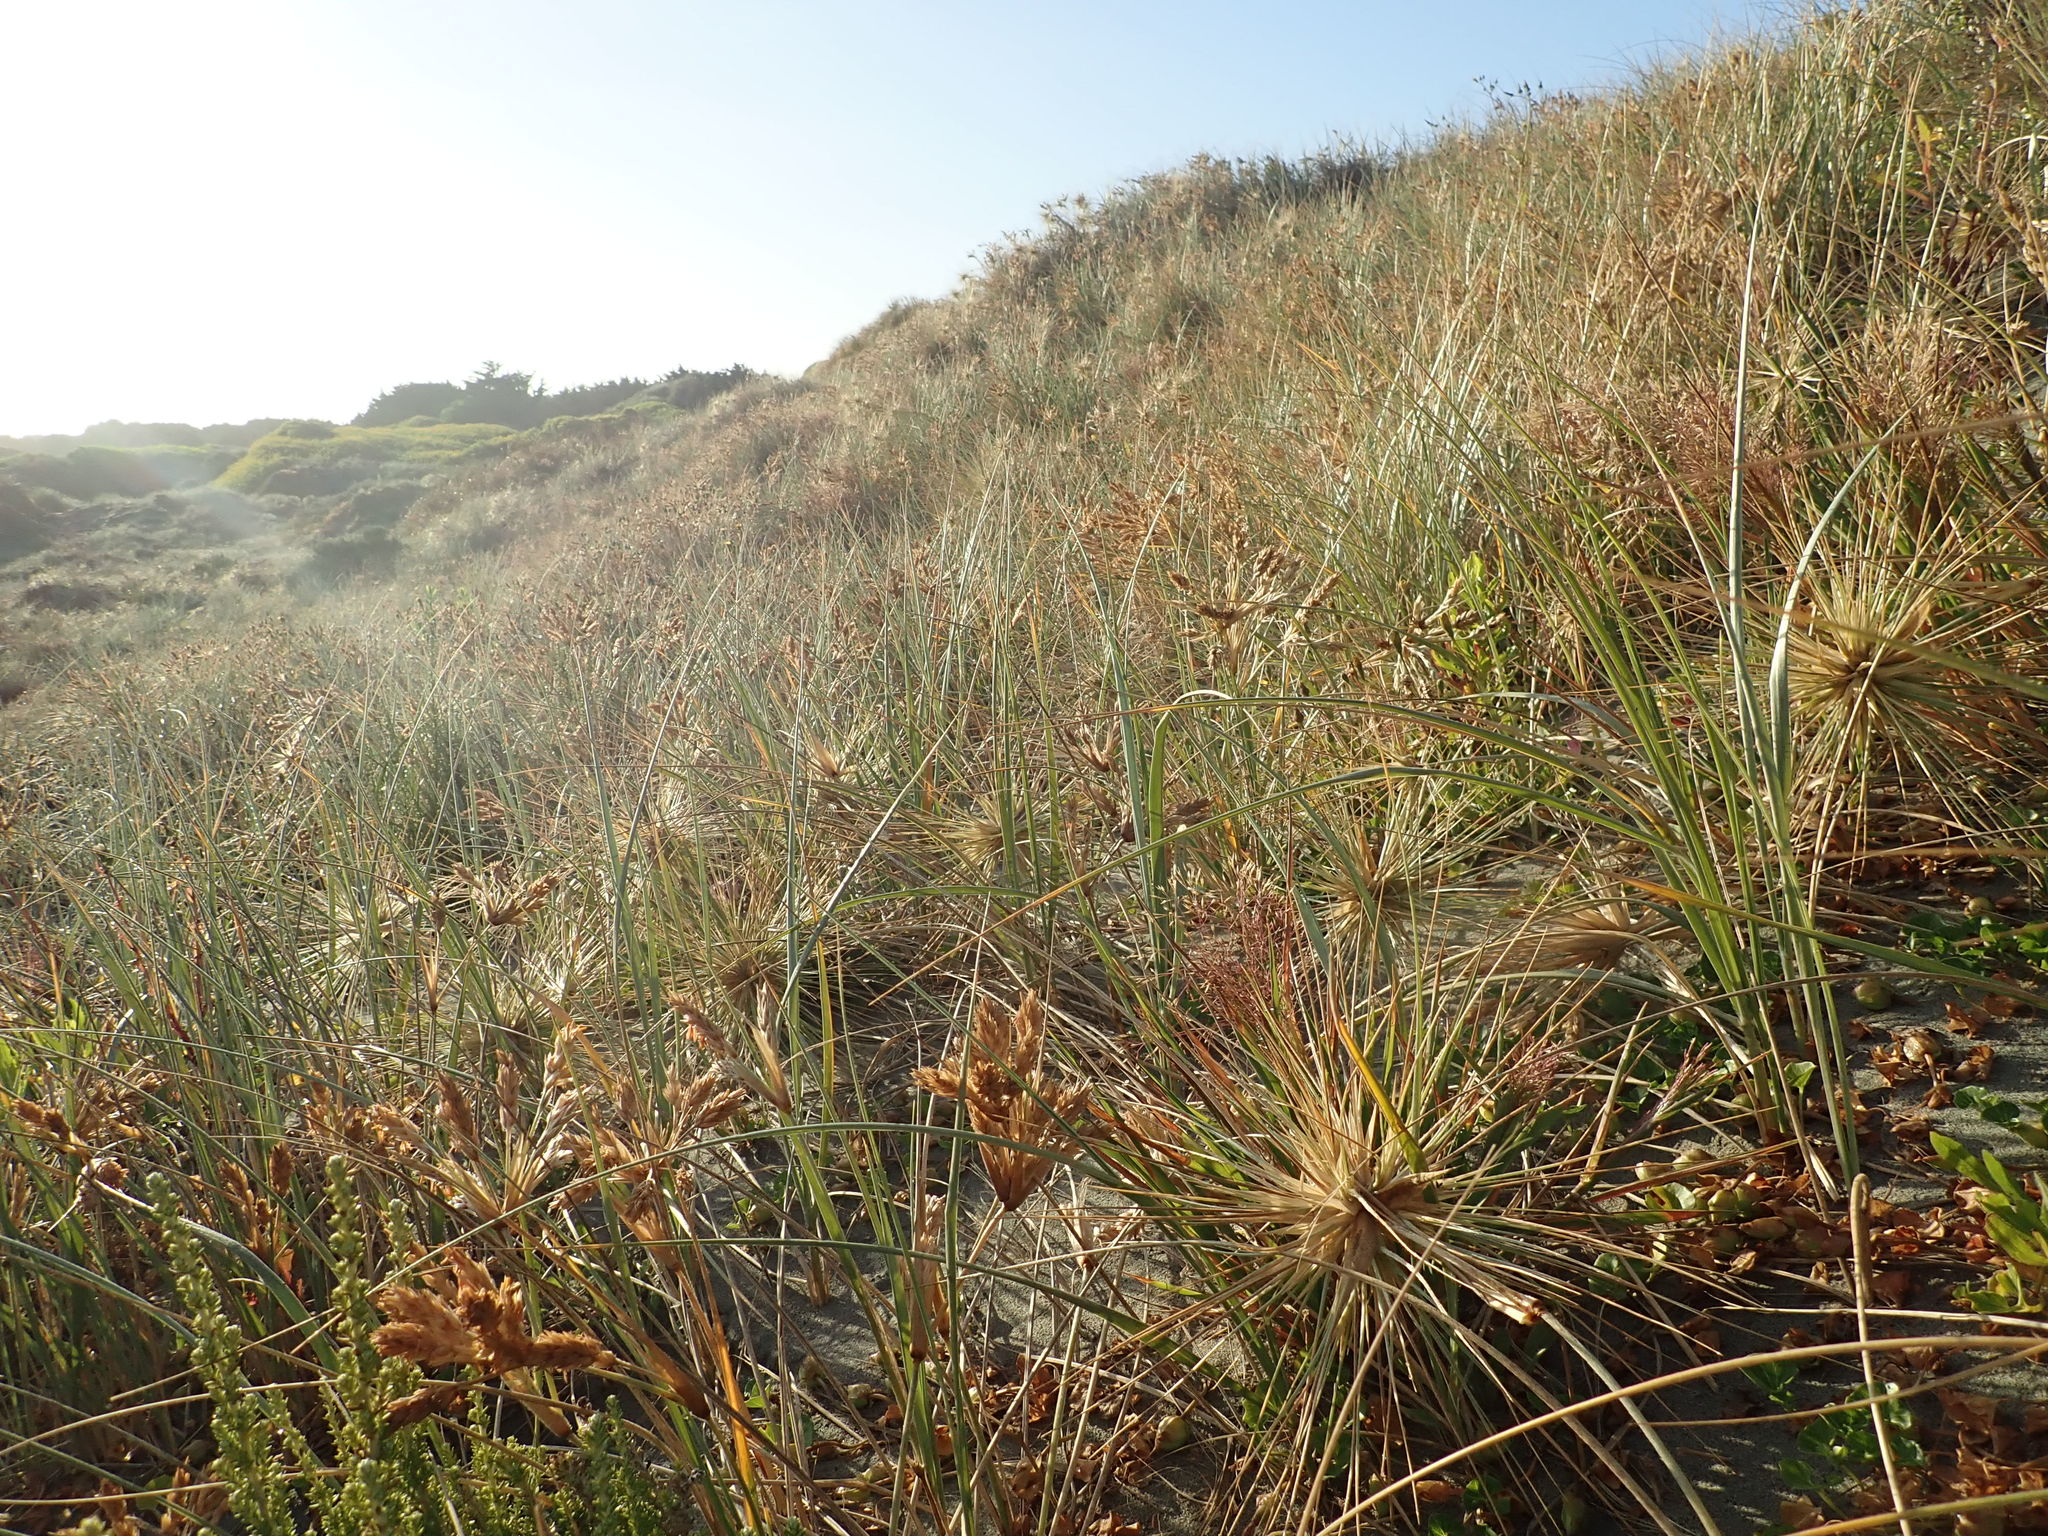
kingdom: Plantae
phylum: Tracheophyta
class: Liliopsida
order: Poales
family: Poaceae
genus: Spinifex
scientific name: Spinifex sericeus
